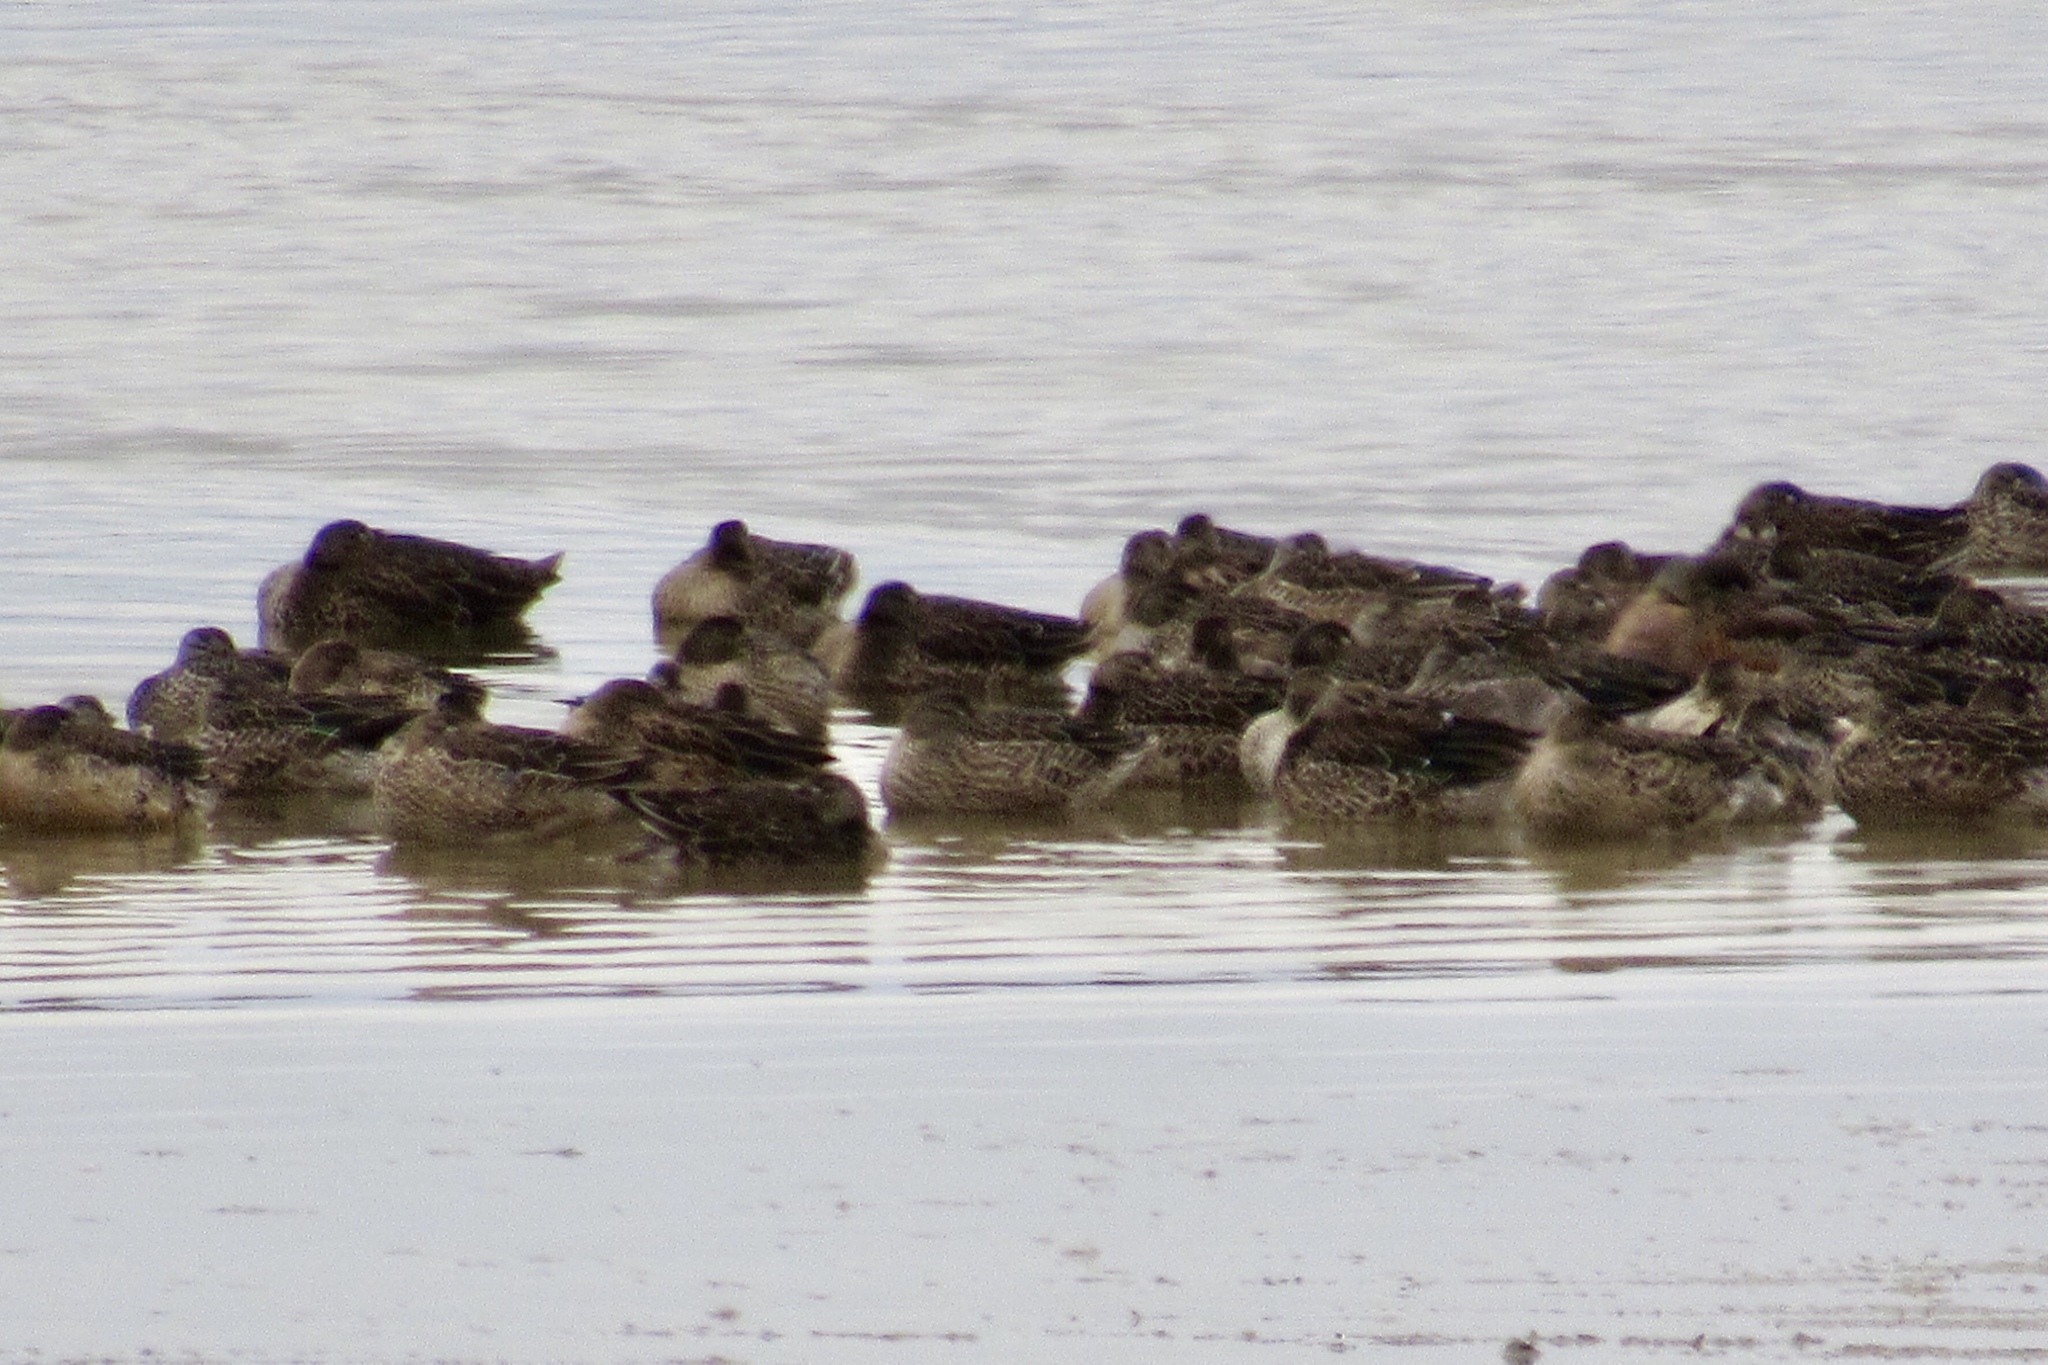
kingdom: Animalia
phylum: Chordata
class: Aves
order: Anseriformes
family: Anatidae
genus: Spatula
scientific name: Spatula discors
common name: Blue-winged teal
